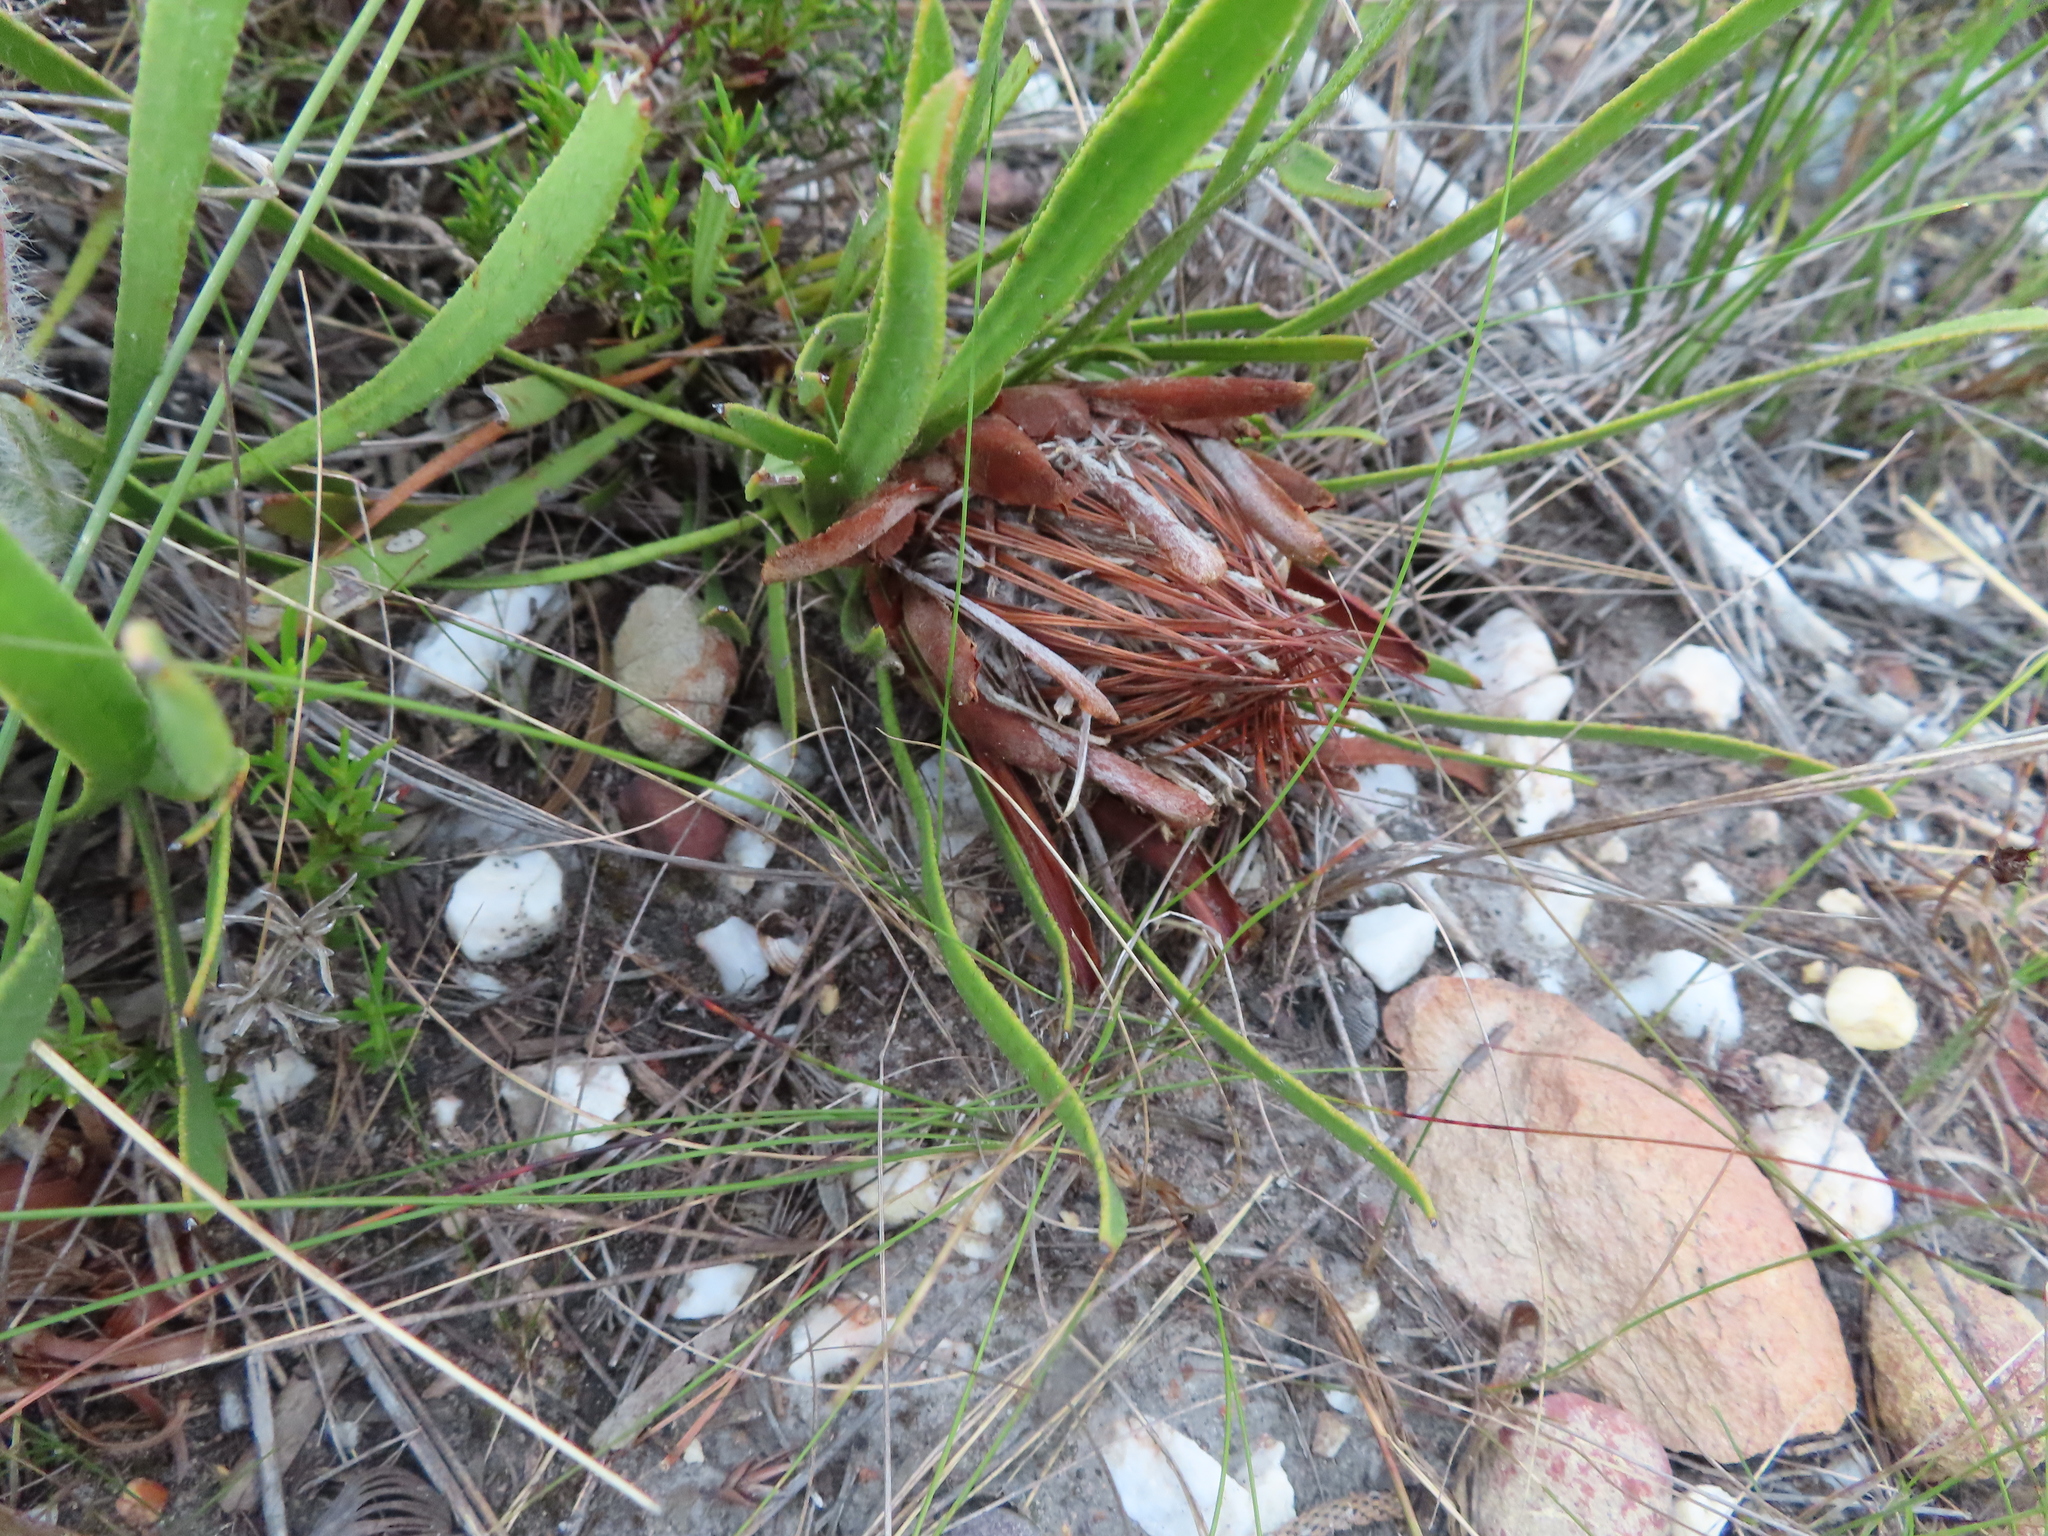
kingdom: Plantae
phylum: Tracheophyta
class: Magnoliopsida
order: Proteales
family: Proteaceae
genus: Protea
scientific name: Protea aspera
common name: Rough-leaf sugarbush
